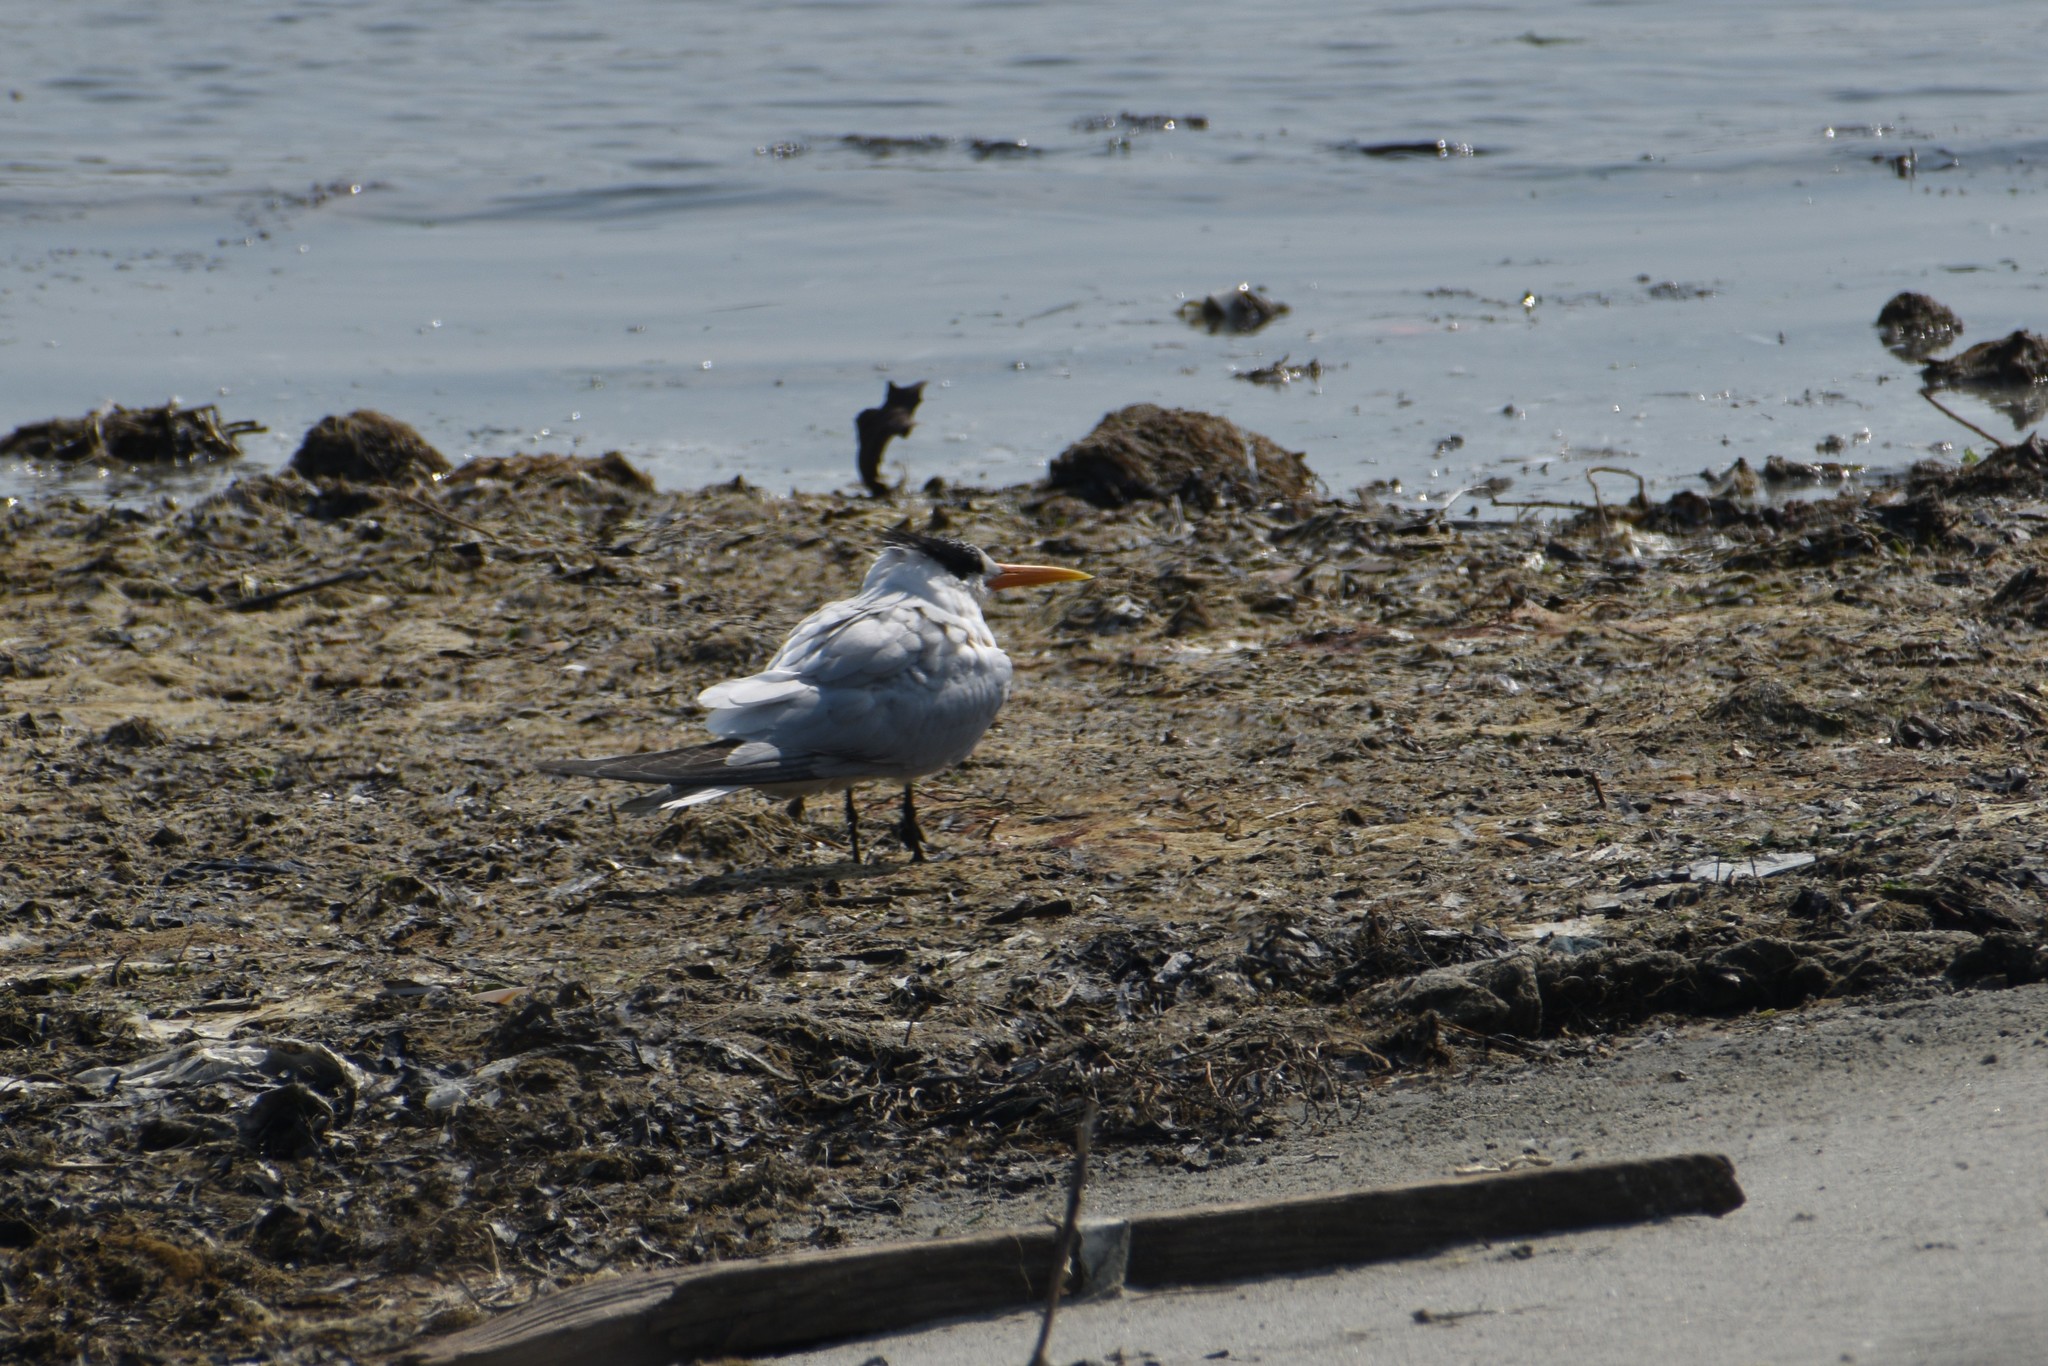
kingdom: Animalia
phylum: Chordata
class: Aves
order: Charadriiformes
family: Laridae
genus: Thalasseus
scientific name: Thalasseus elegans
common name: Elegant tern
